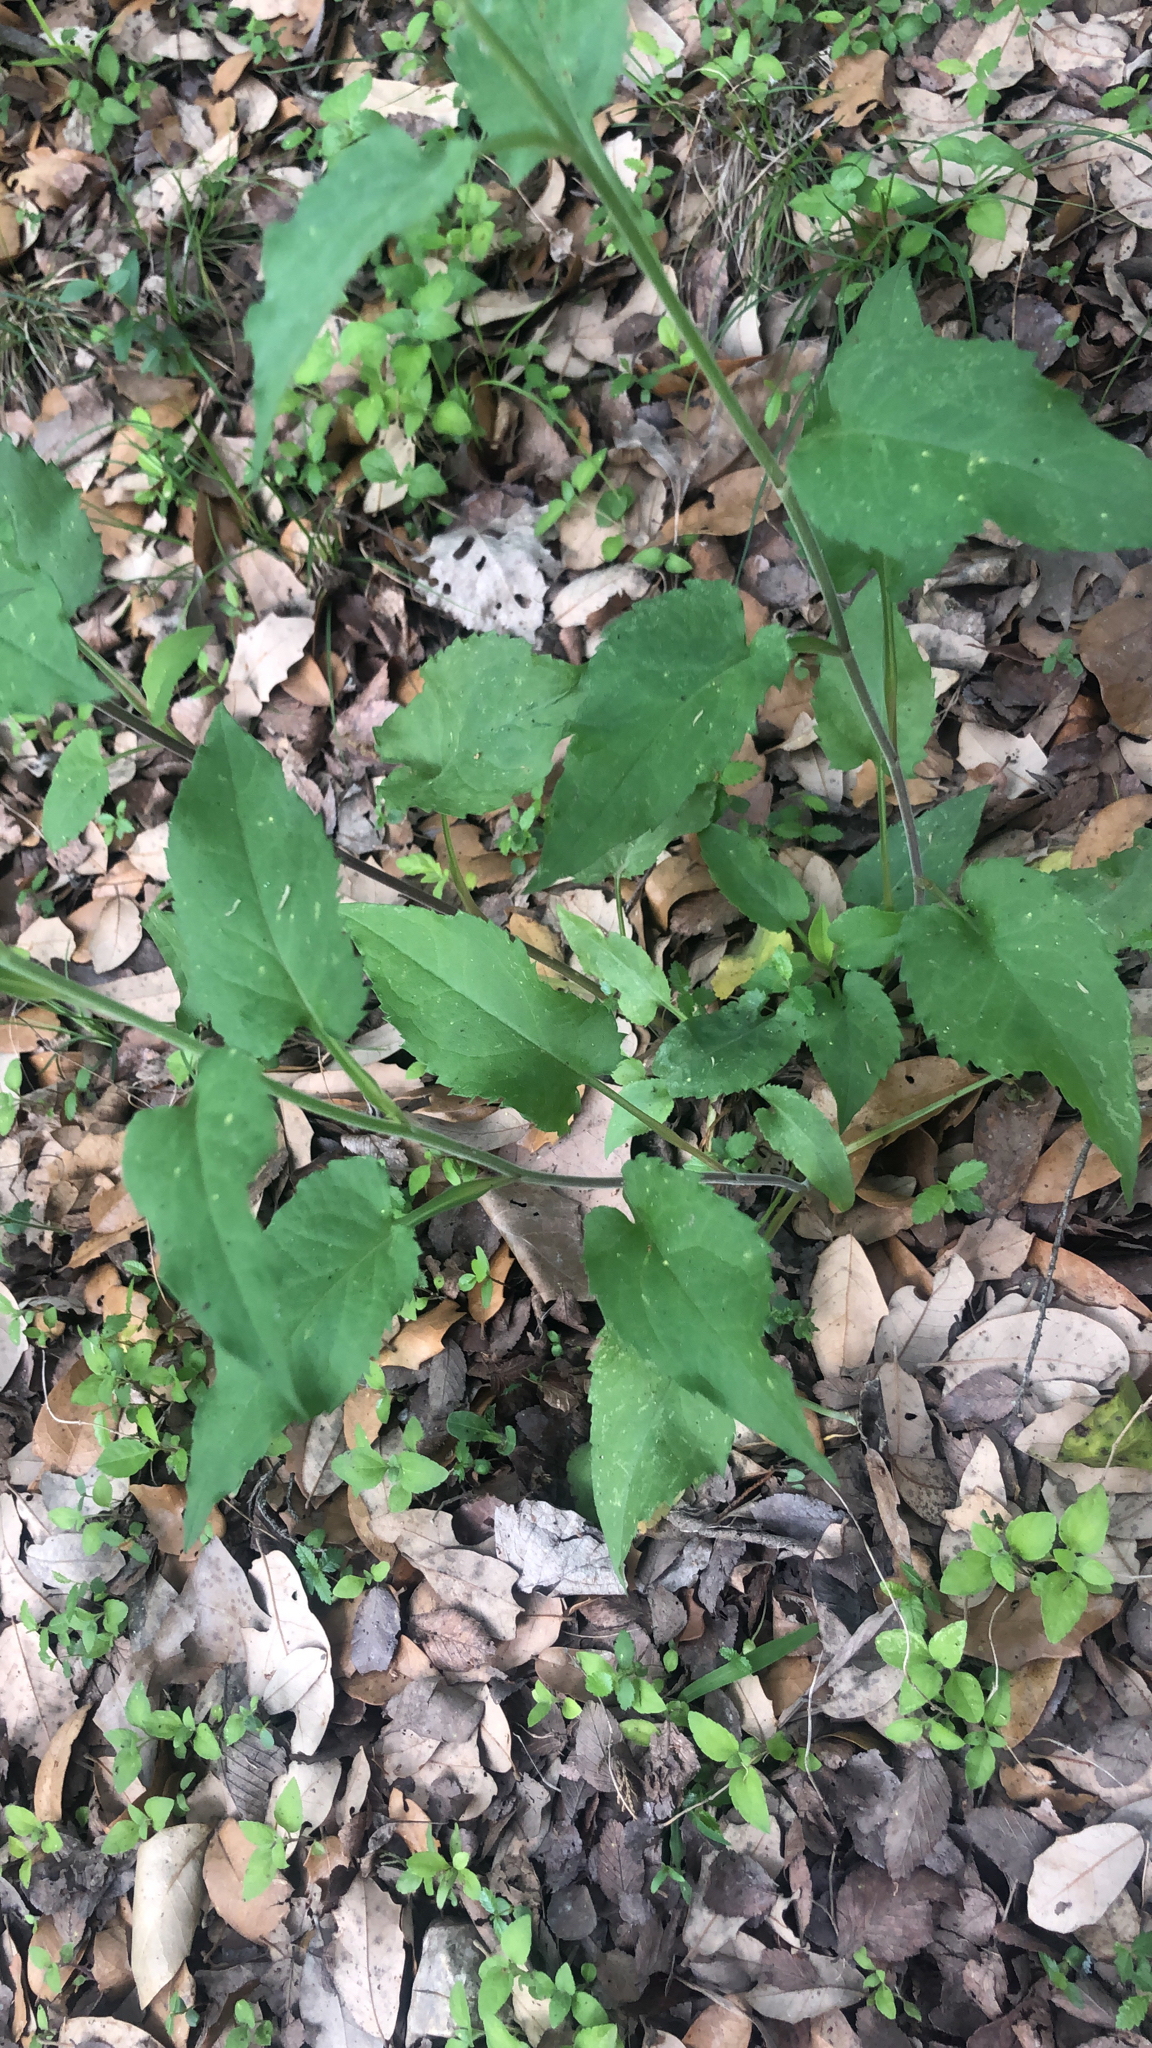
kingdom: Plantae
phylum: Tracheophyta
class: Magnoliopsida
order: Asterales
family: Asteraceae
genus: Symphyotrichum
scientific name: Symphyotrichum drummondii
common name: Drummond's aster
